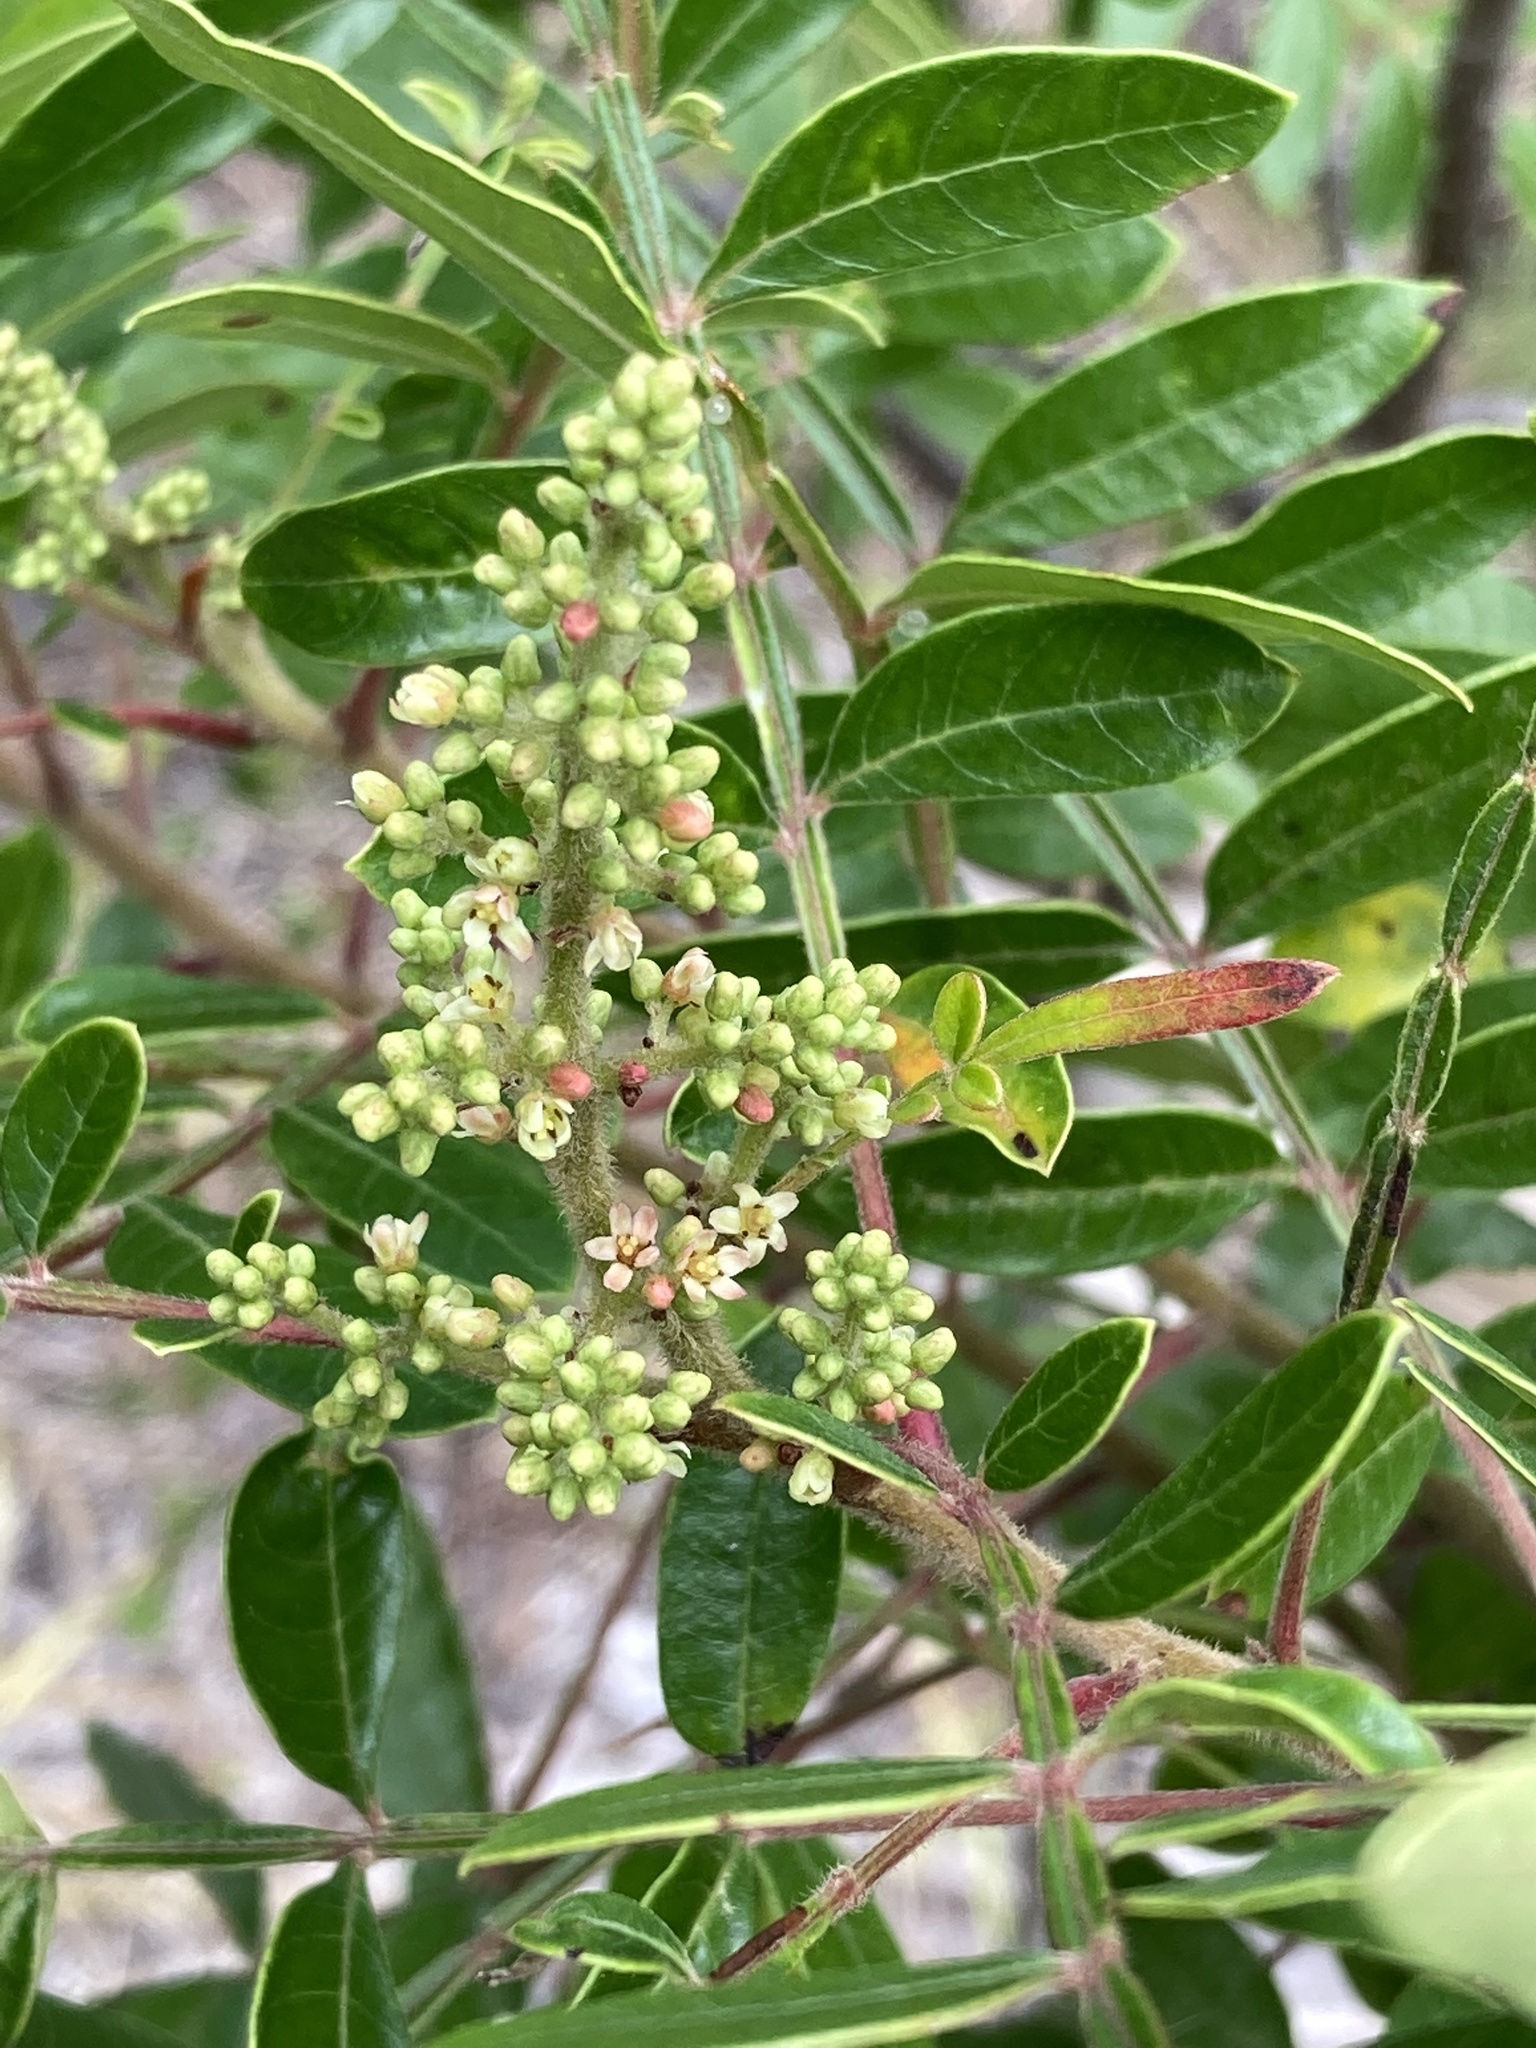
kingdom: Plantae
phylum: Tracheophyta
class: Magnoliopsida
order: Sapindales
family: Anacardiaceae
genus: Rhus
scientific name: Rhus copallina
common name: Shining sumac
